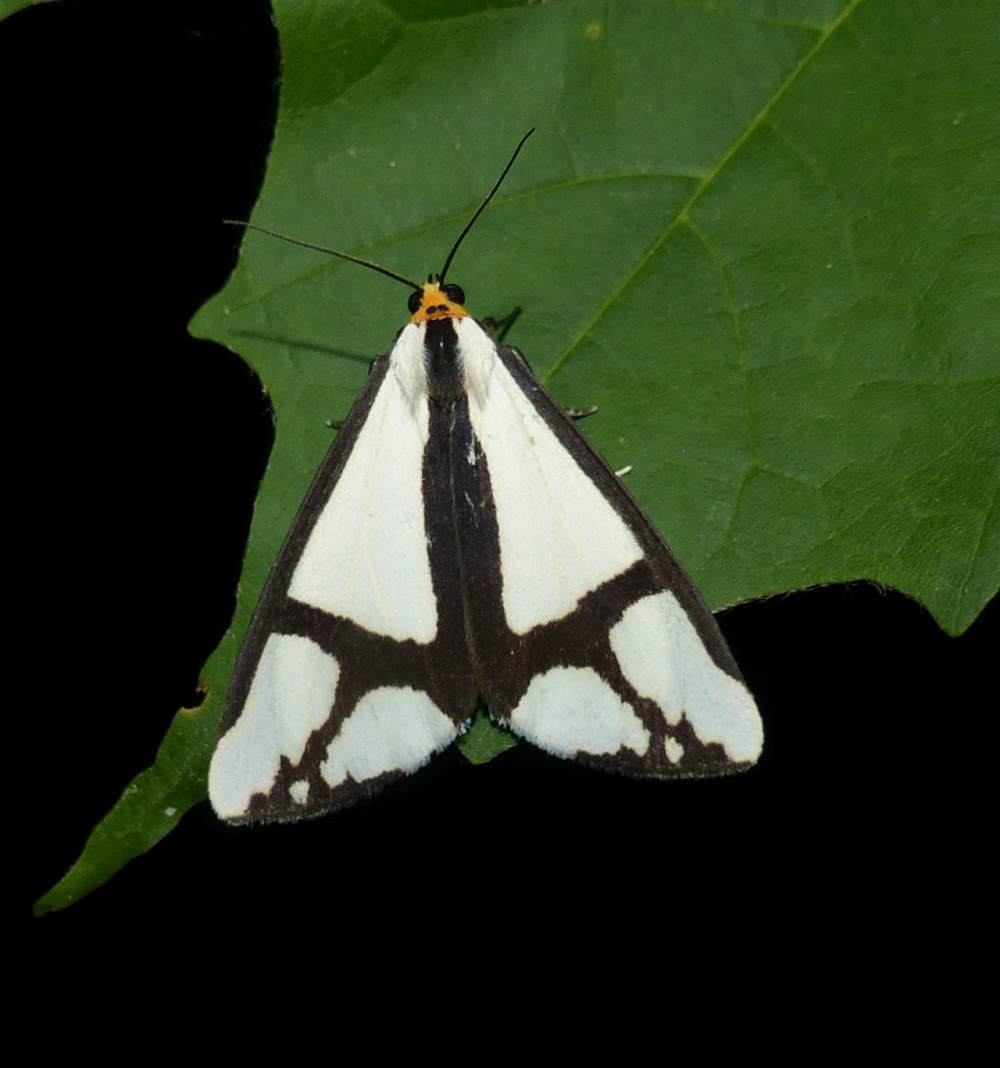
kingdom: Animalia
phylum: Arthropoda
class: Insecta
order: Lepidoptera
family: Erebidae
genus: Haploa
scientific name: Haploa contigua
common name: Neighbor moth
